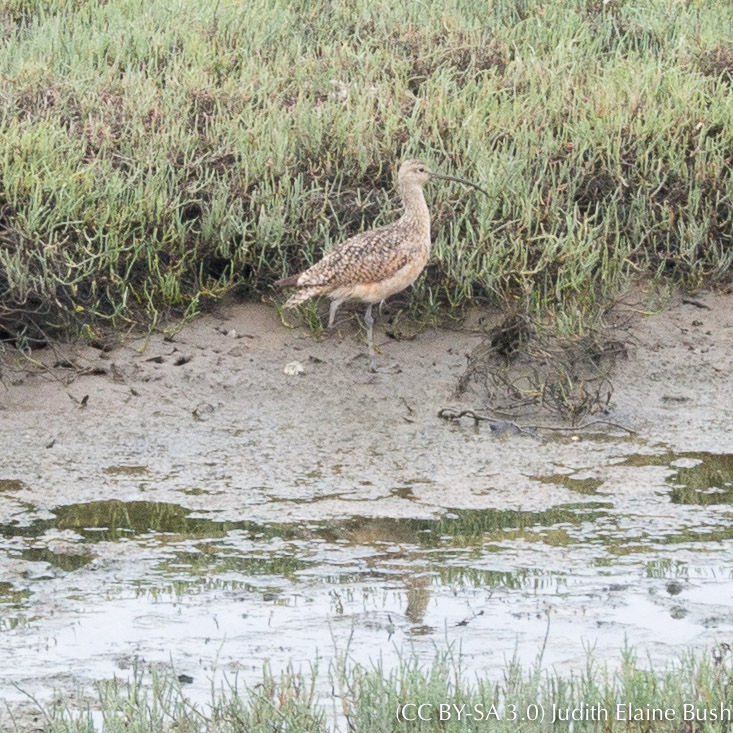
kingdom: Animalia
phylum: Chordata
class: Aves
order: Charadriiformes
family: Scolopacidae
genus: Numenius
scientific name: Numenius americanus
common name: Long-billed curlew
